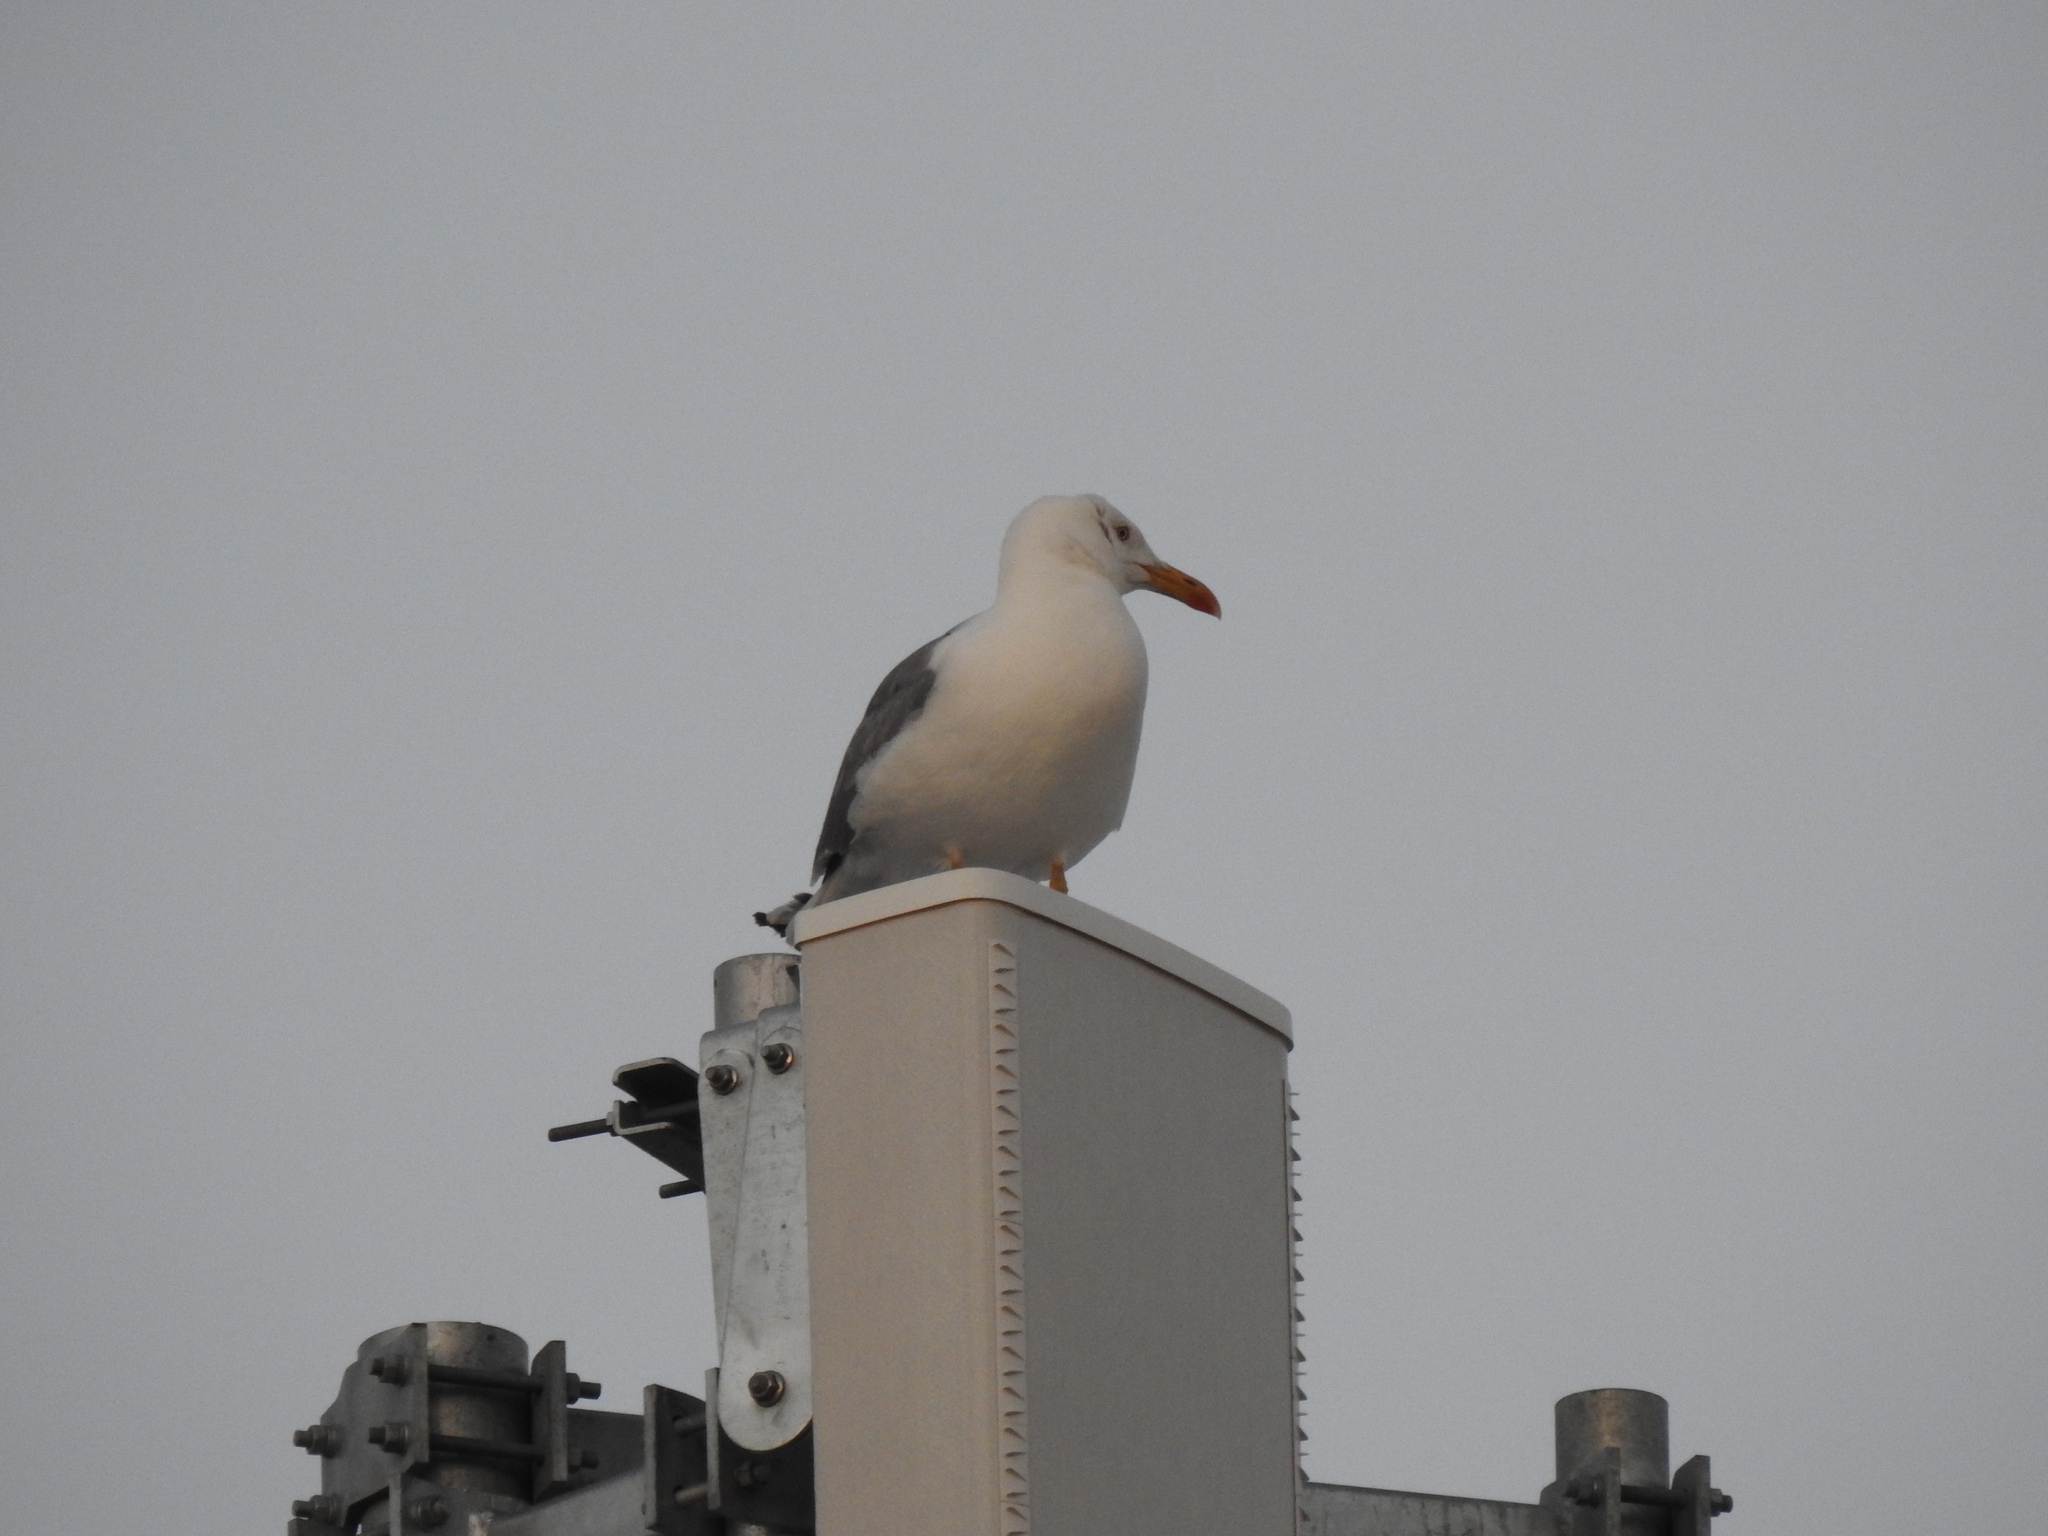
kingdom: Animalia
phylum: Chordata
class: Aves
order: Charadriiformes
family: Laridae
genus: Larus
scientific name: Larus michahellis
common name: Yellow-legged gull
